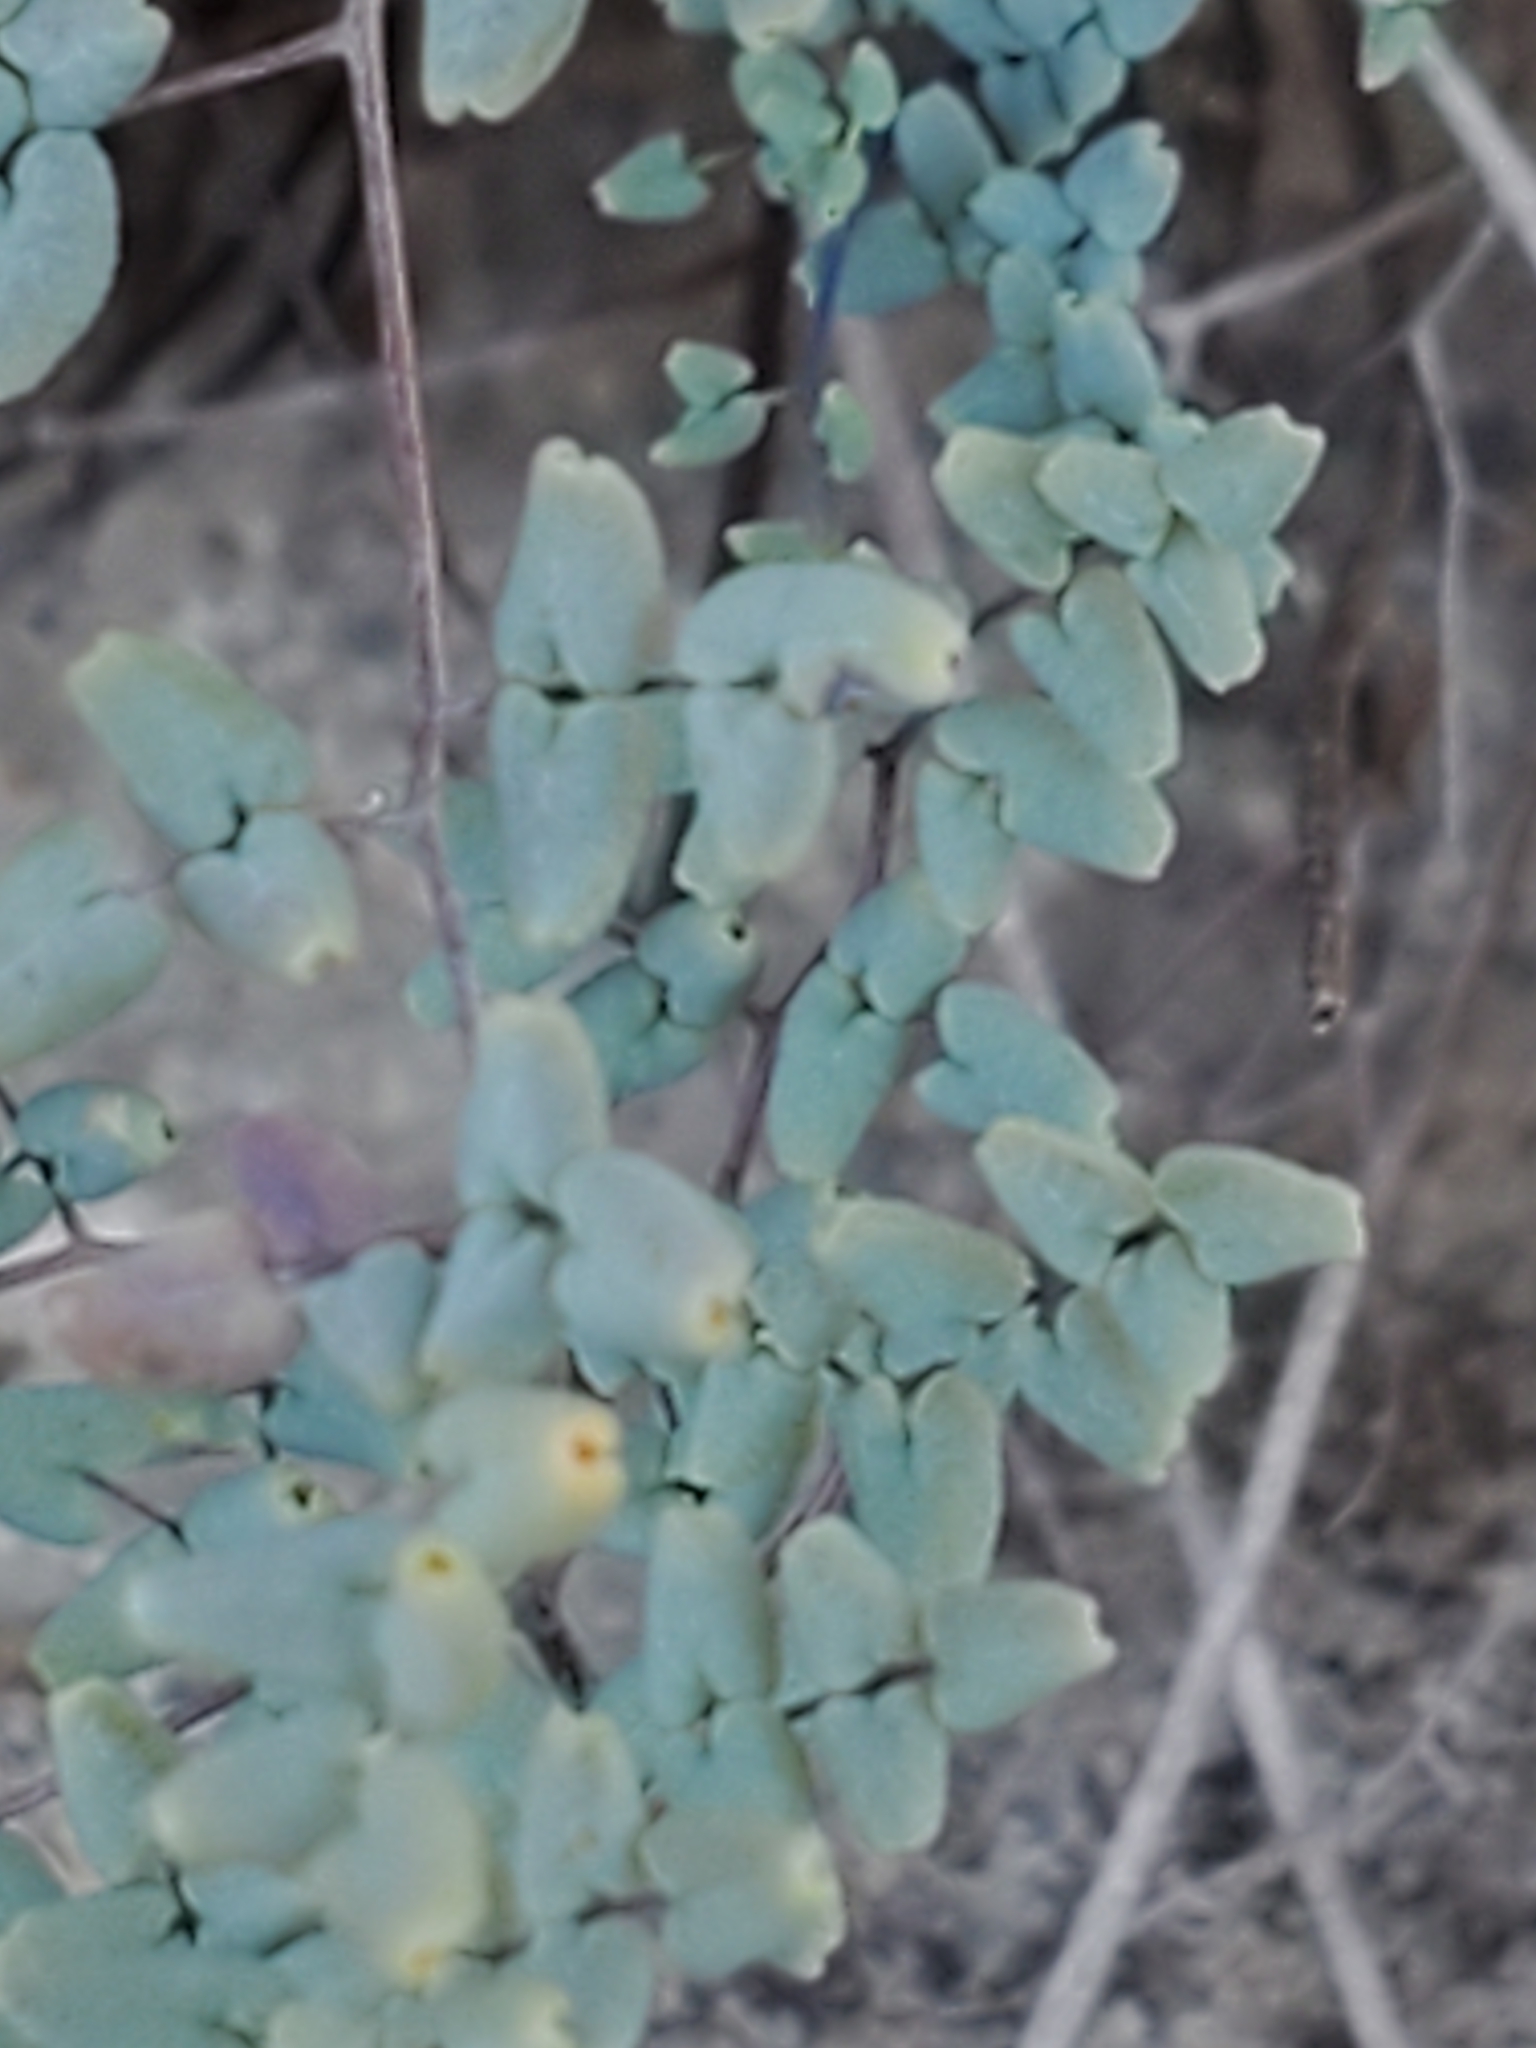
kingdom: Plantae
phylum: Tracheophyta
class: Polypodiopsida
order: Polypodiales
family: Pteridaceae
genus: Argyrochosma
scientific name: Argyrochosma microphylla
